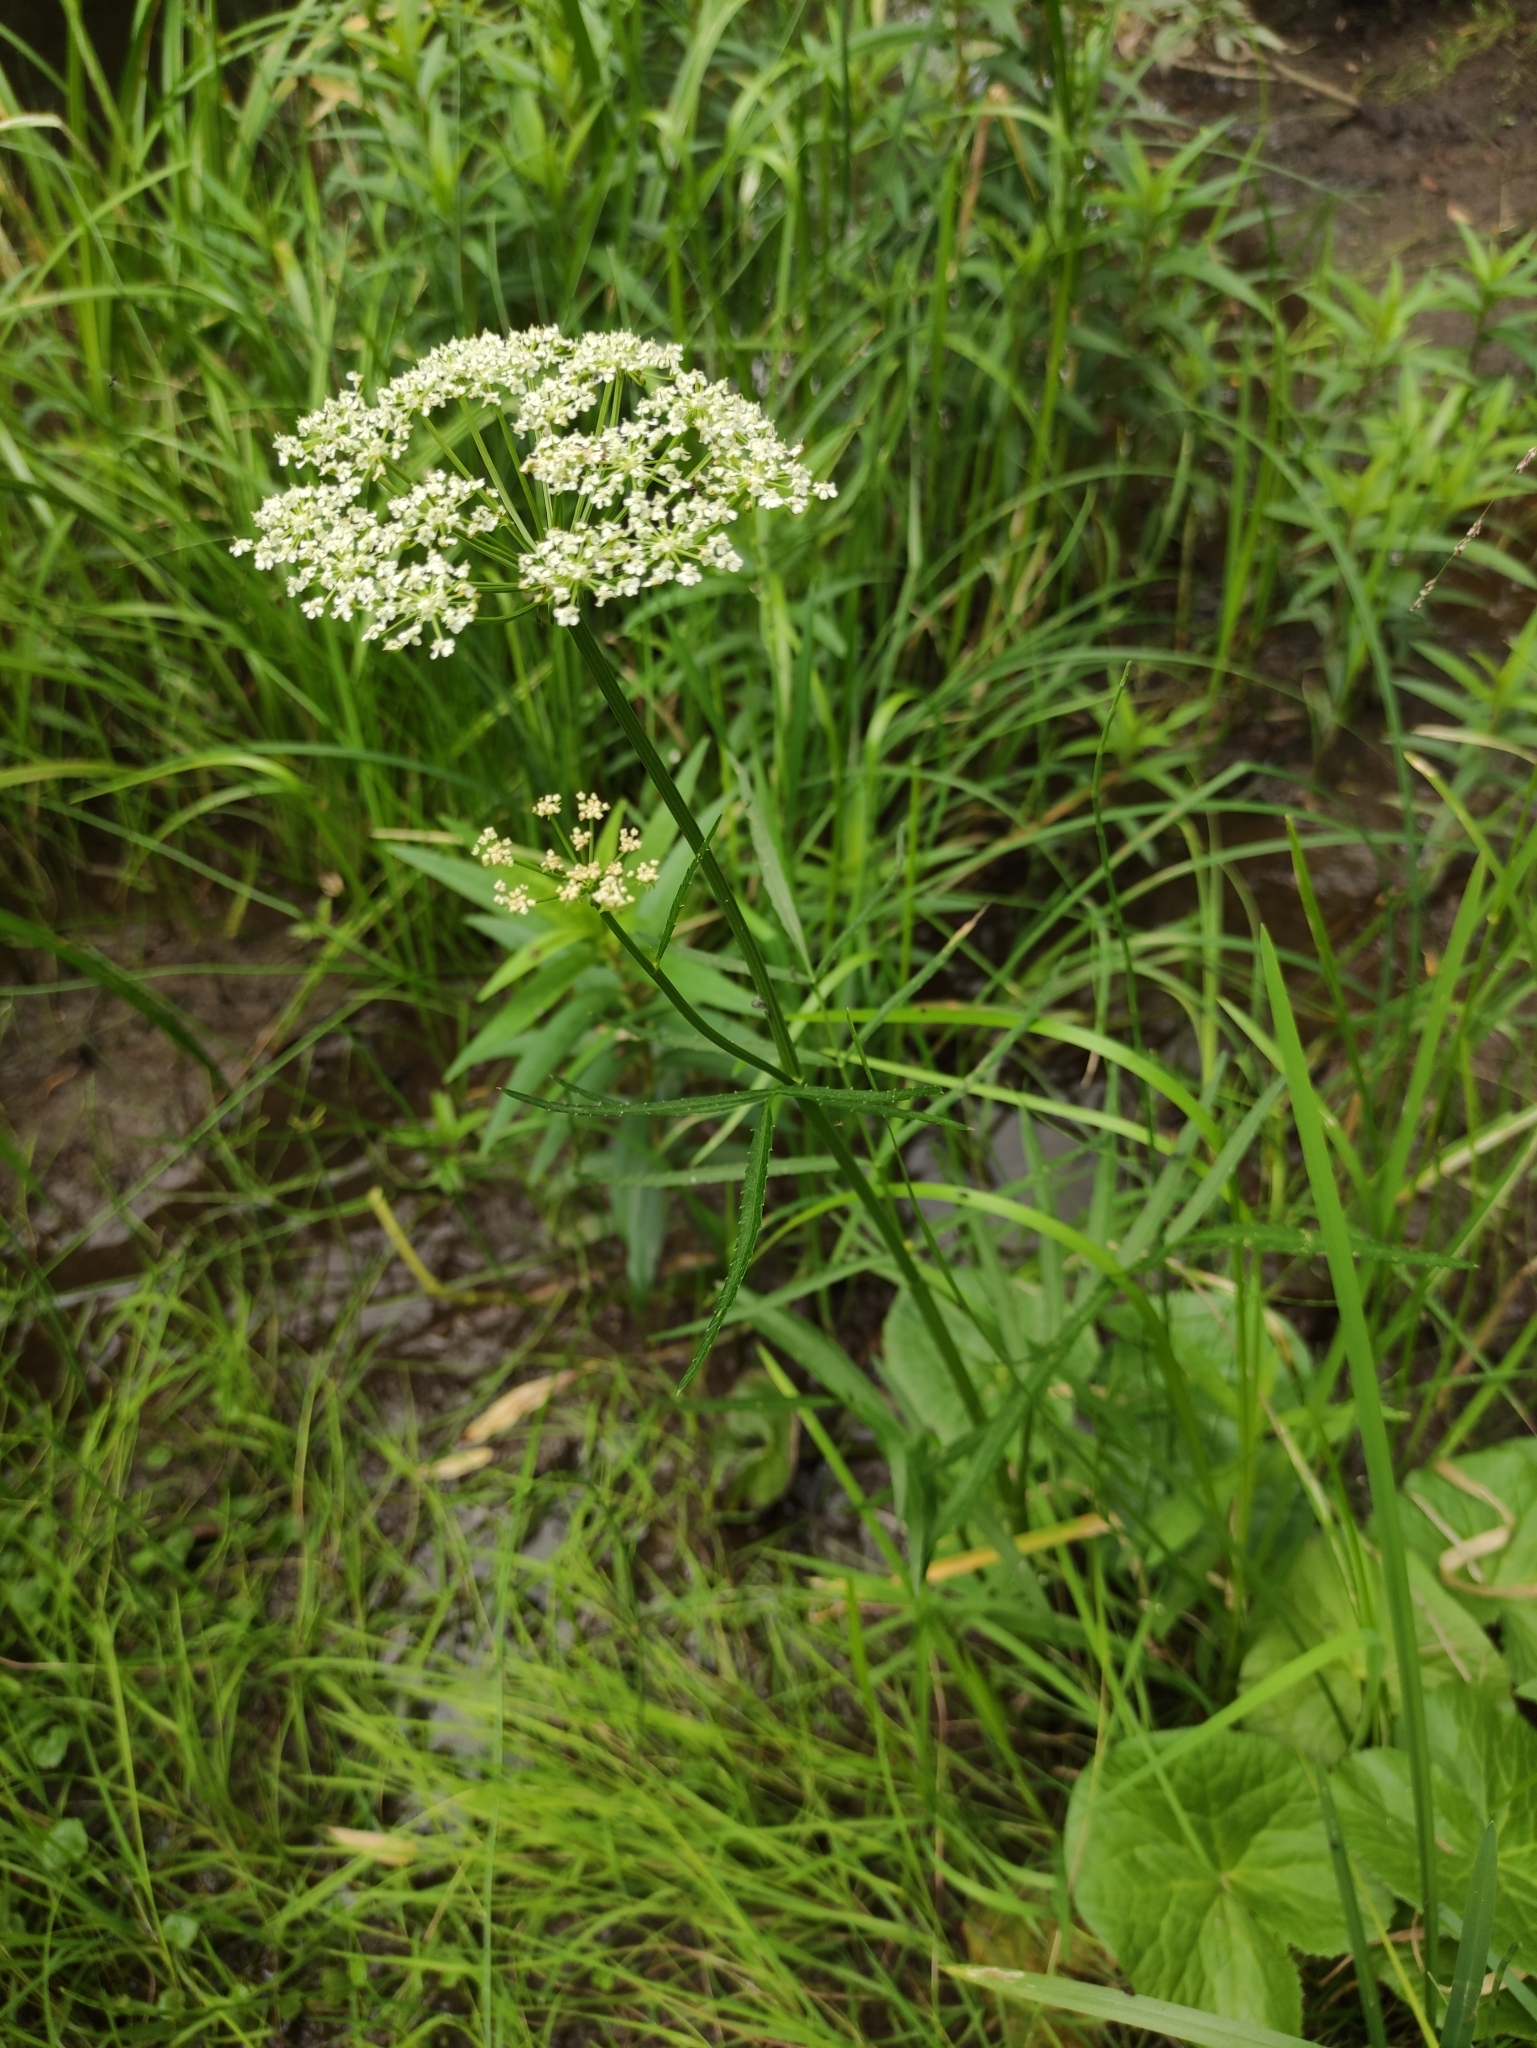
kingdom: Plantae
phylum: Tracheophyta
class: Magnoliopsida
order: Apiales
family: Apiaceae
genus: Sium
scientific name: Sium suave
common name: Hemlock water-parsnip
